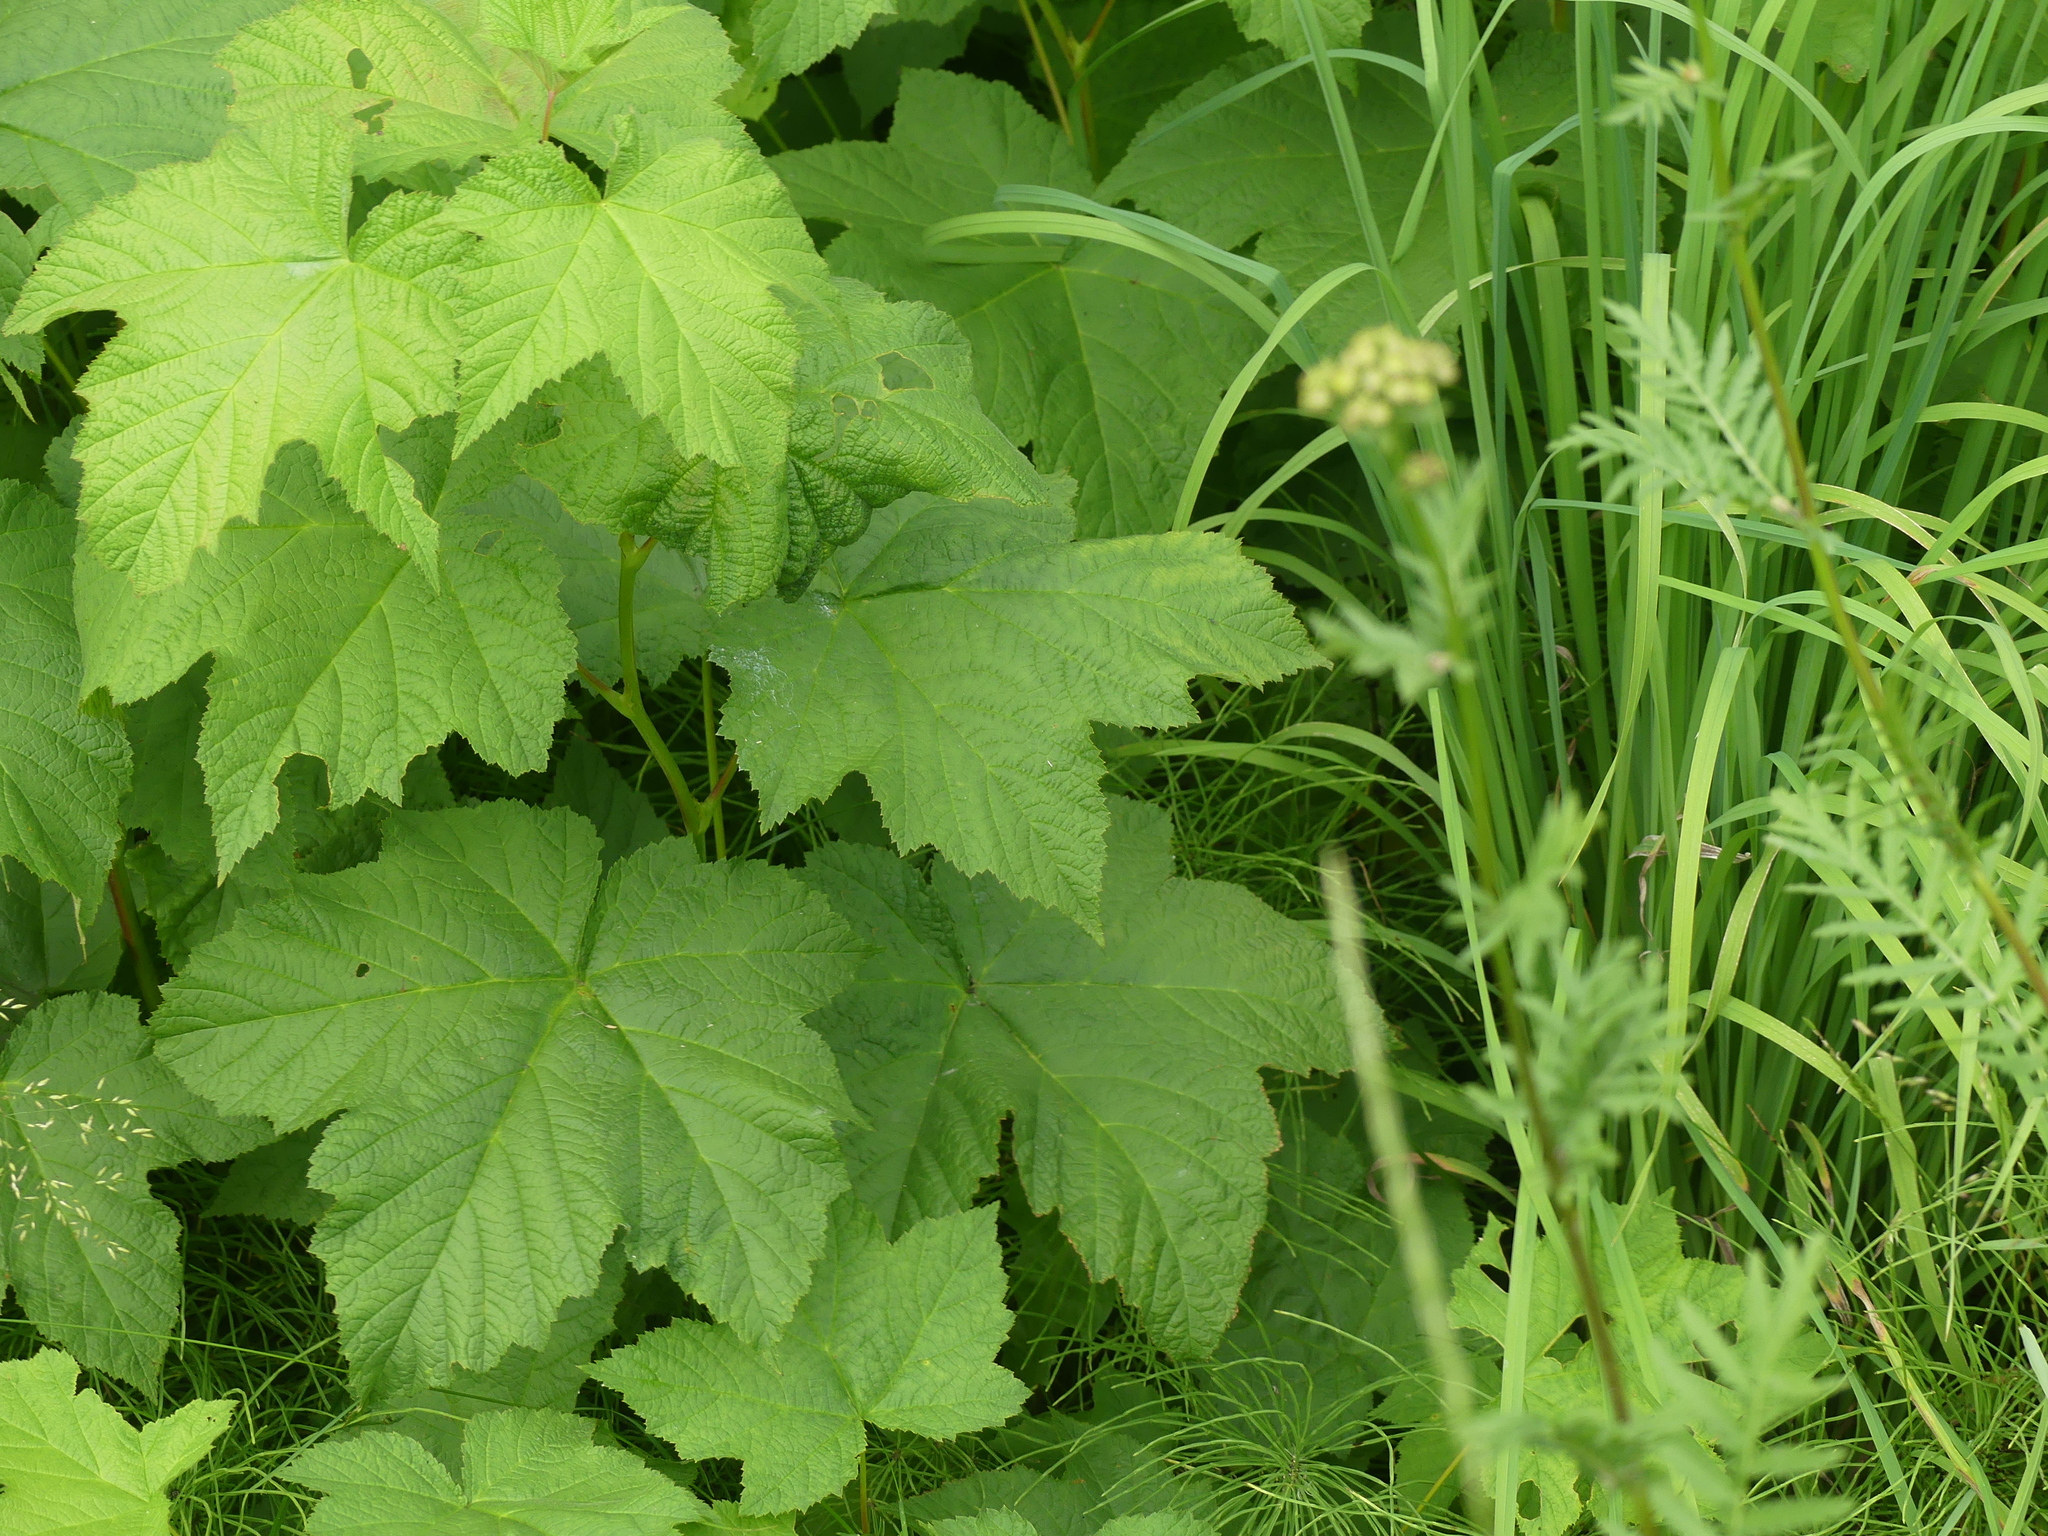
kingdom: Plantae
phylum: Tracheophyta
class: Magnoliopsida
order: Rosales
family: Rosaceae
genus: Rubus
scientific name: Rubus parviflorus
